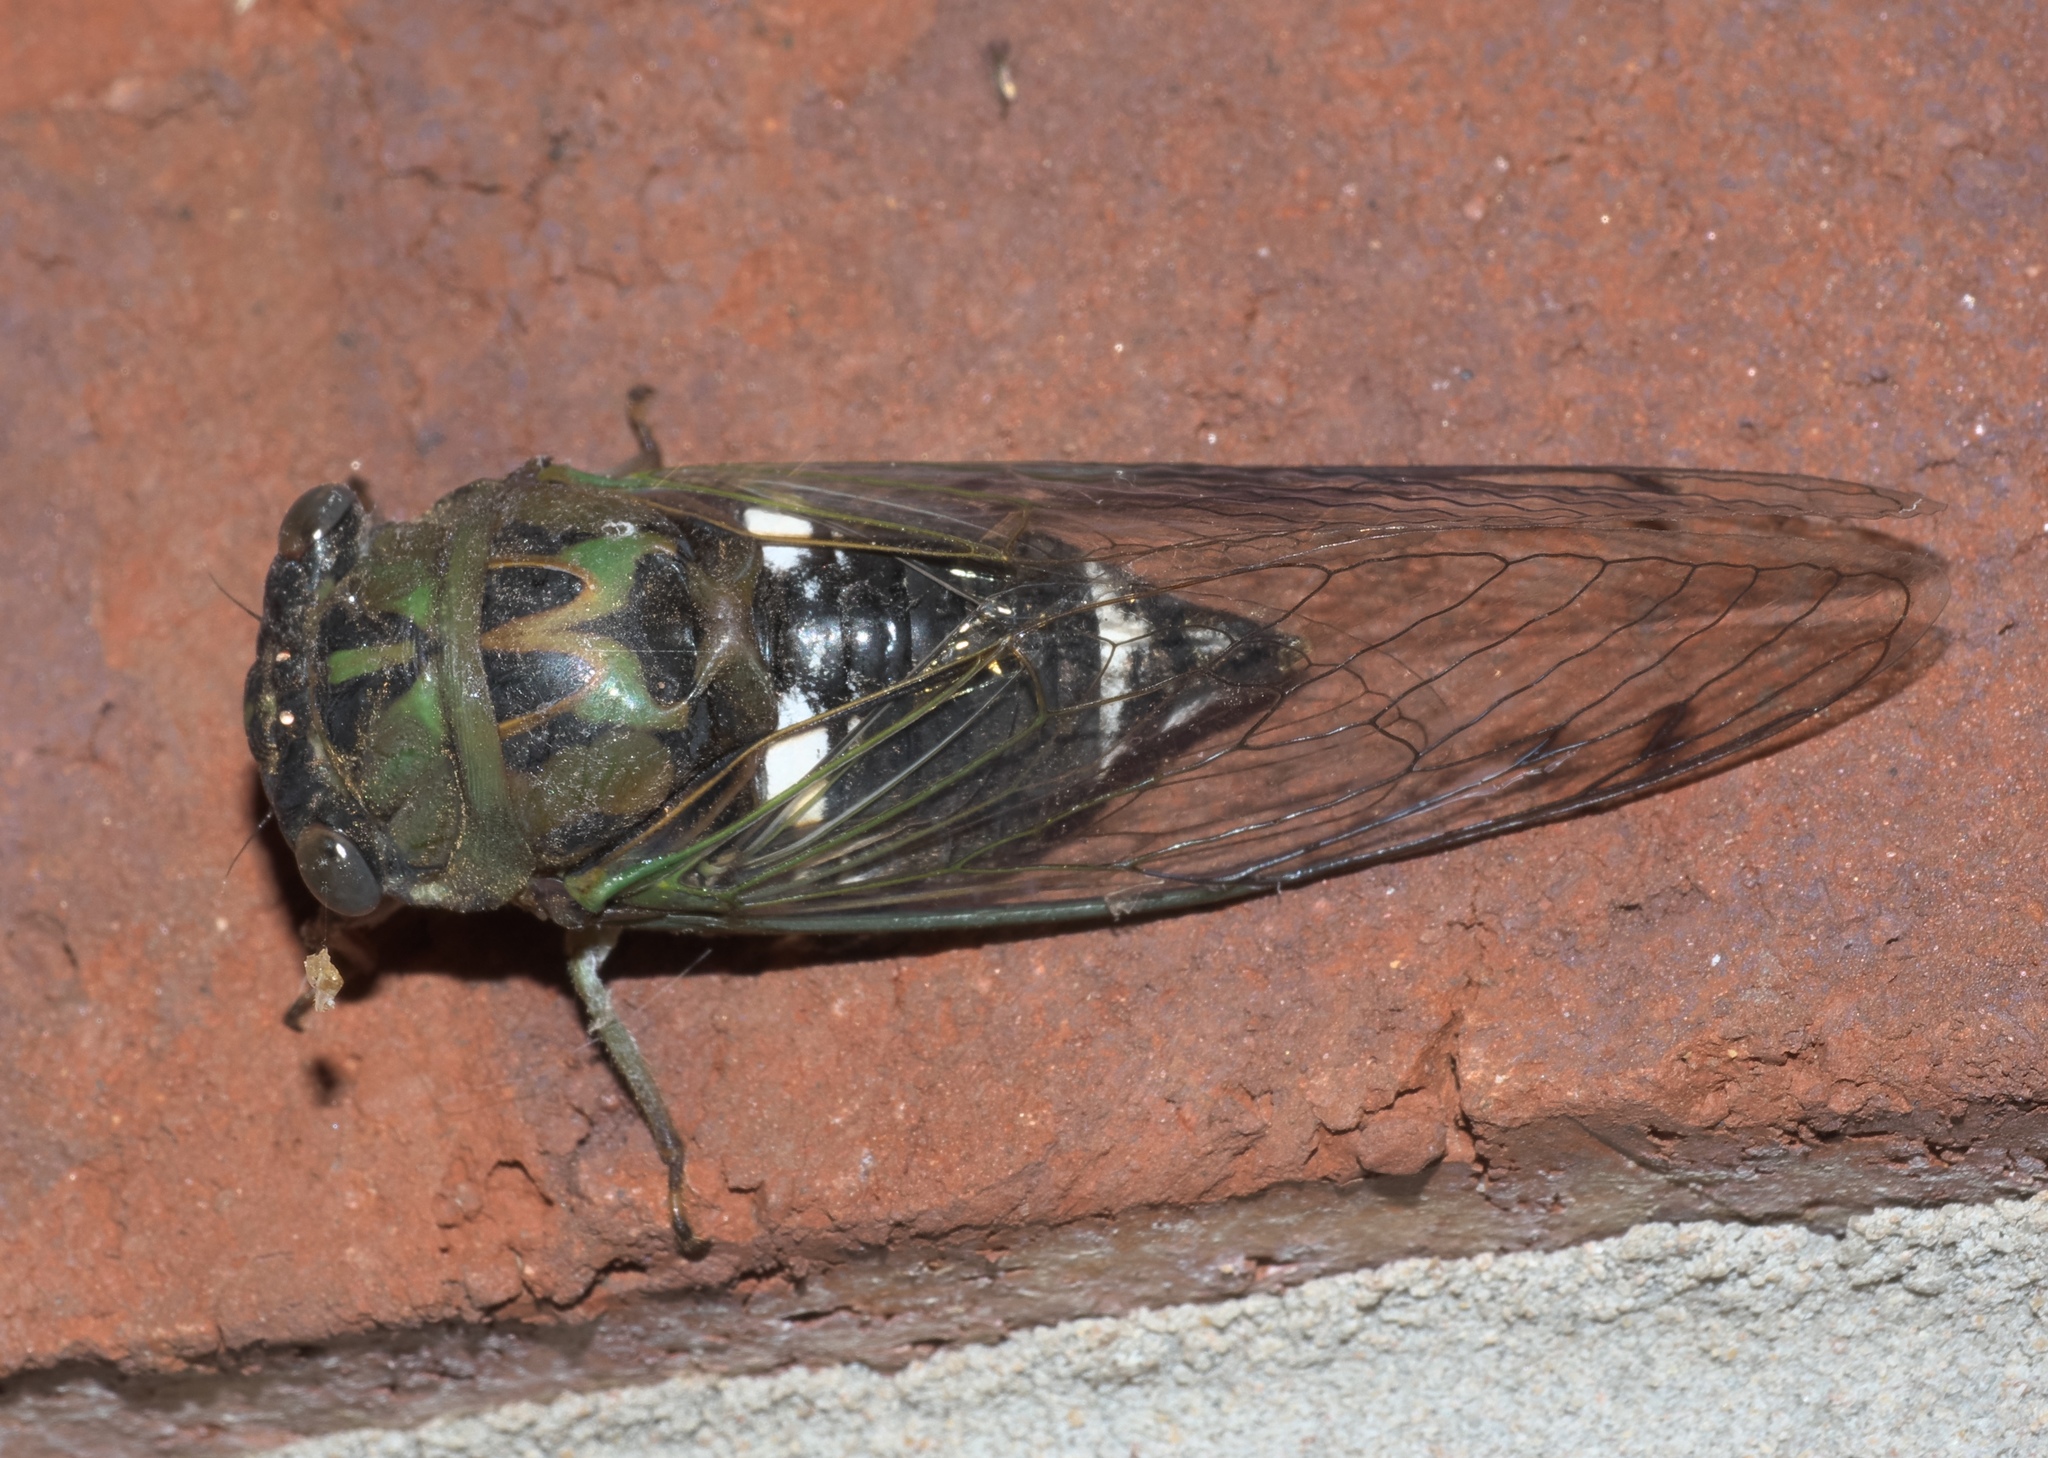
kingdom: Animalia
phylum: Arthropoda
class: Insecta
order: Hemiptera
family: Cicadidae
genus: Neotibicen
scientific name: Neotibicen pruinosus
